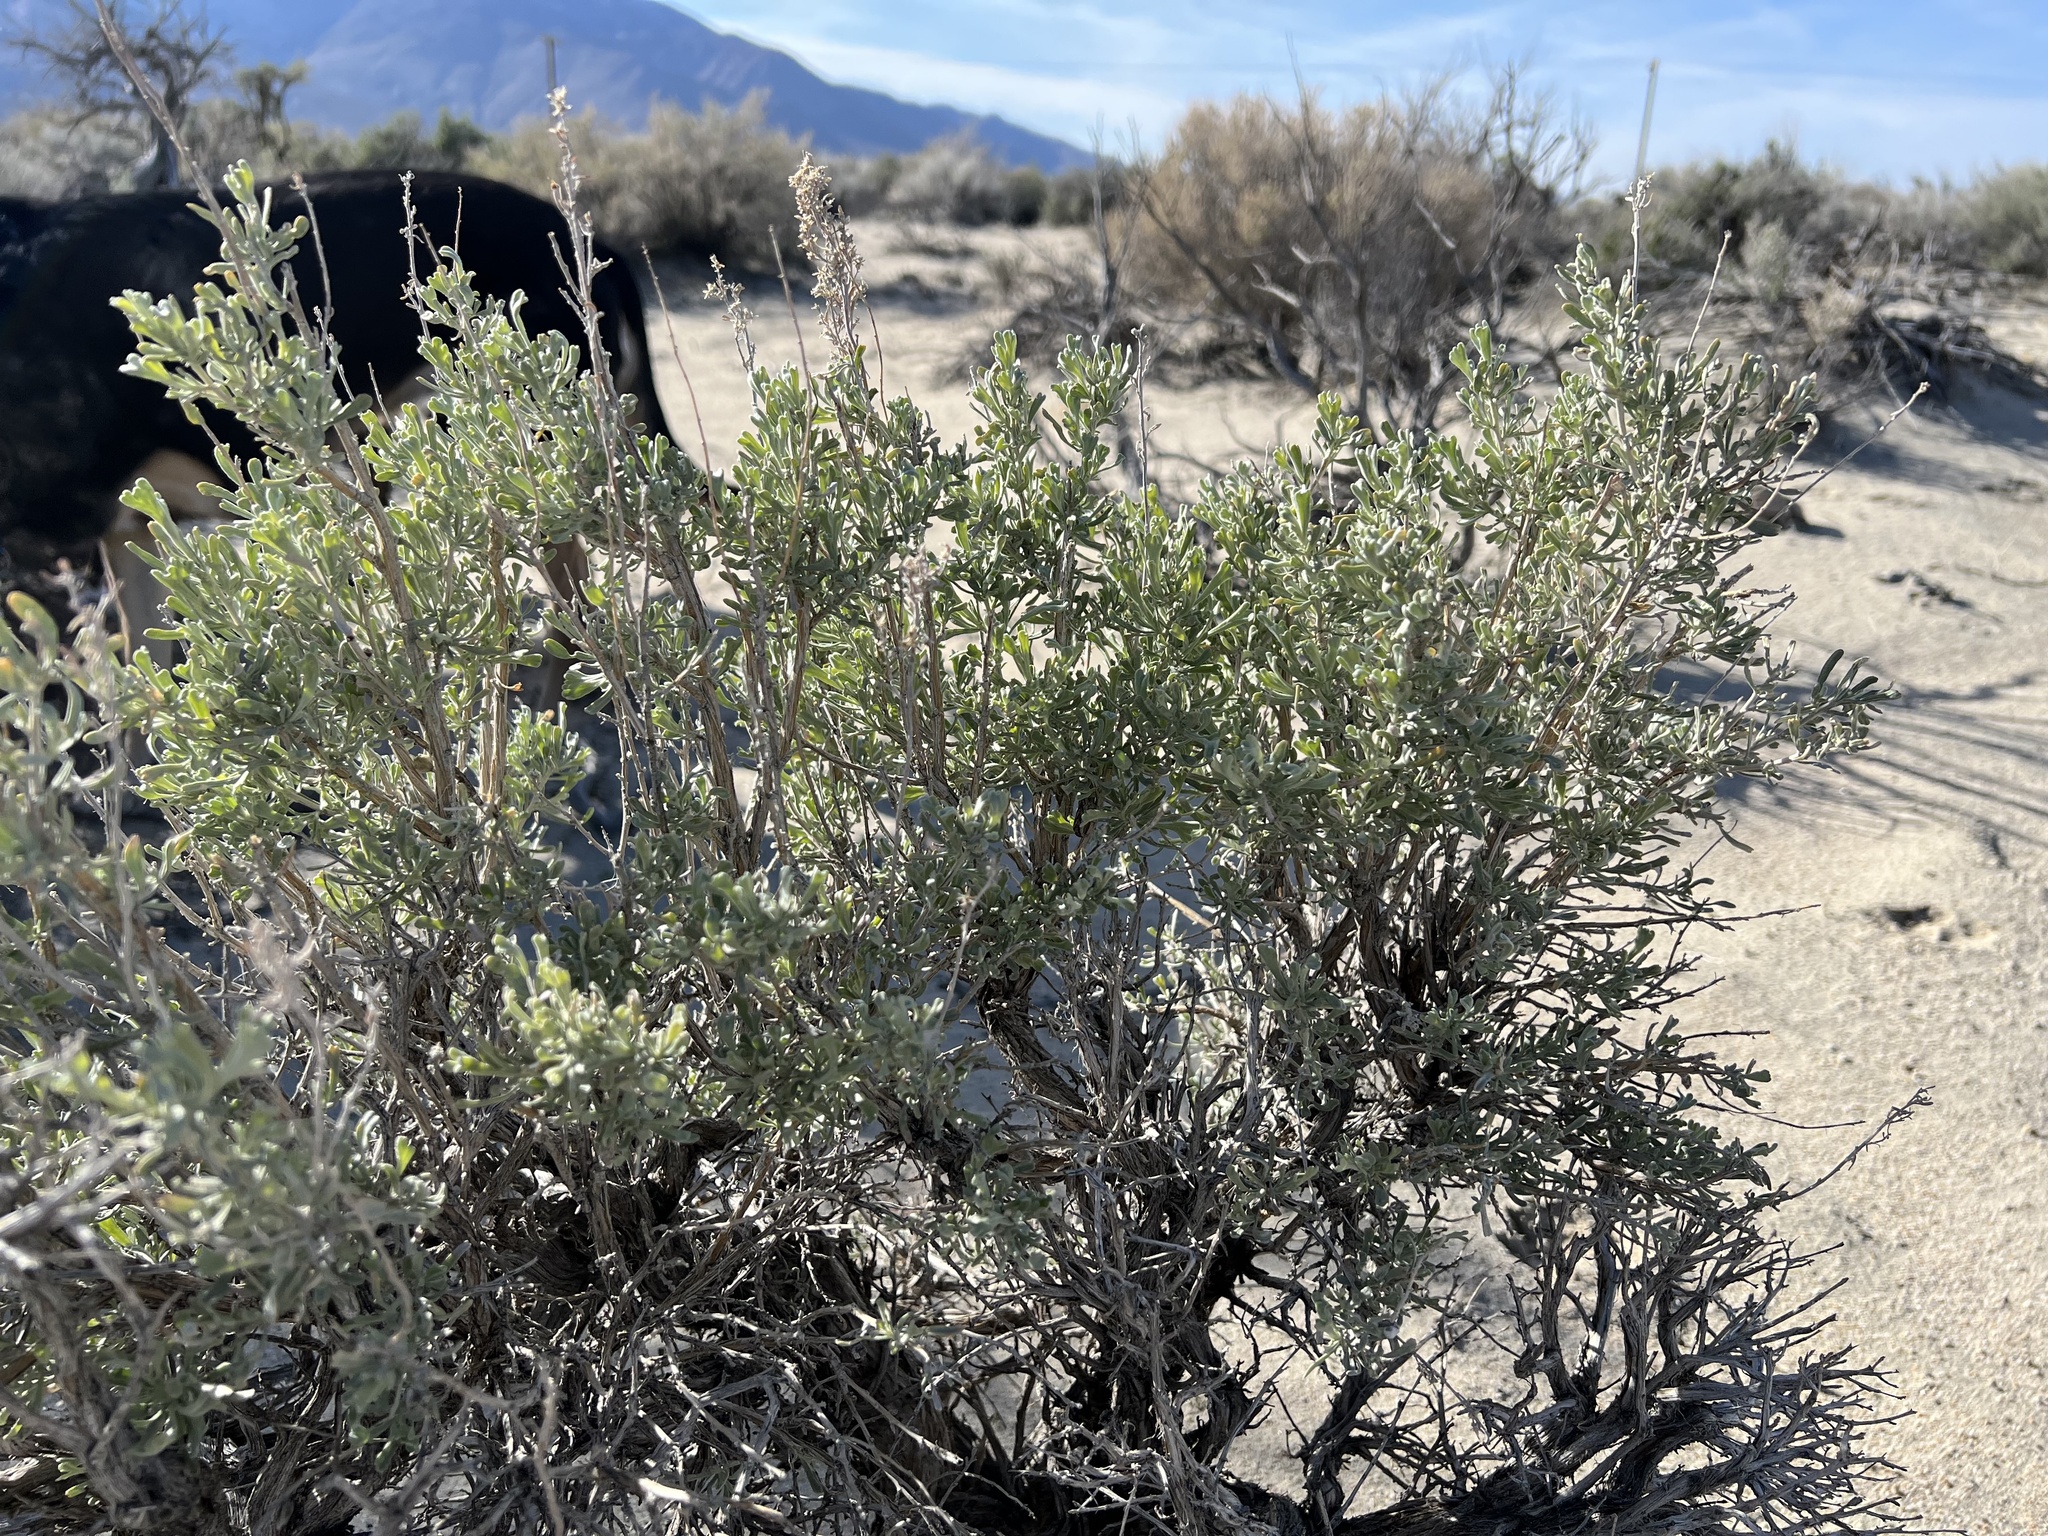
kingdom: Plantae
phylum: Tracheophyta
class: Magnoliopsida
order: Asterales
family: Asteraceae
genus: Artemisia
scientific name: Artemisia tridentata
